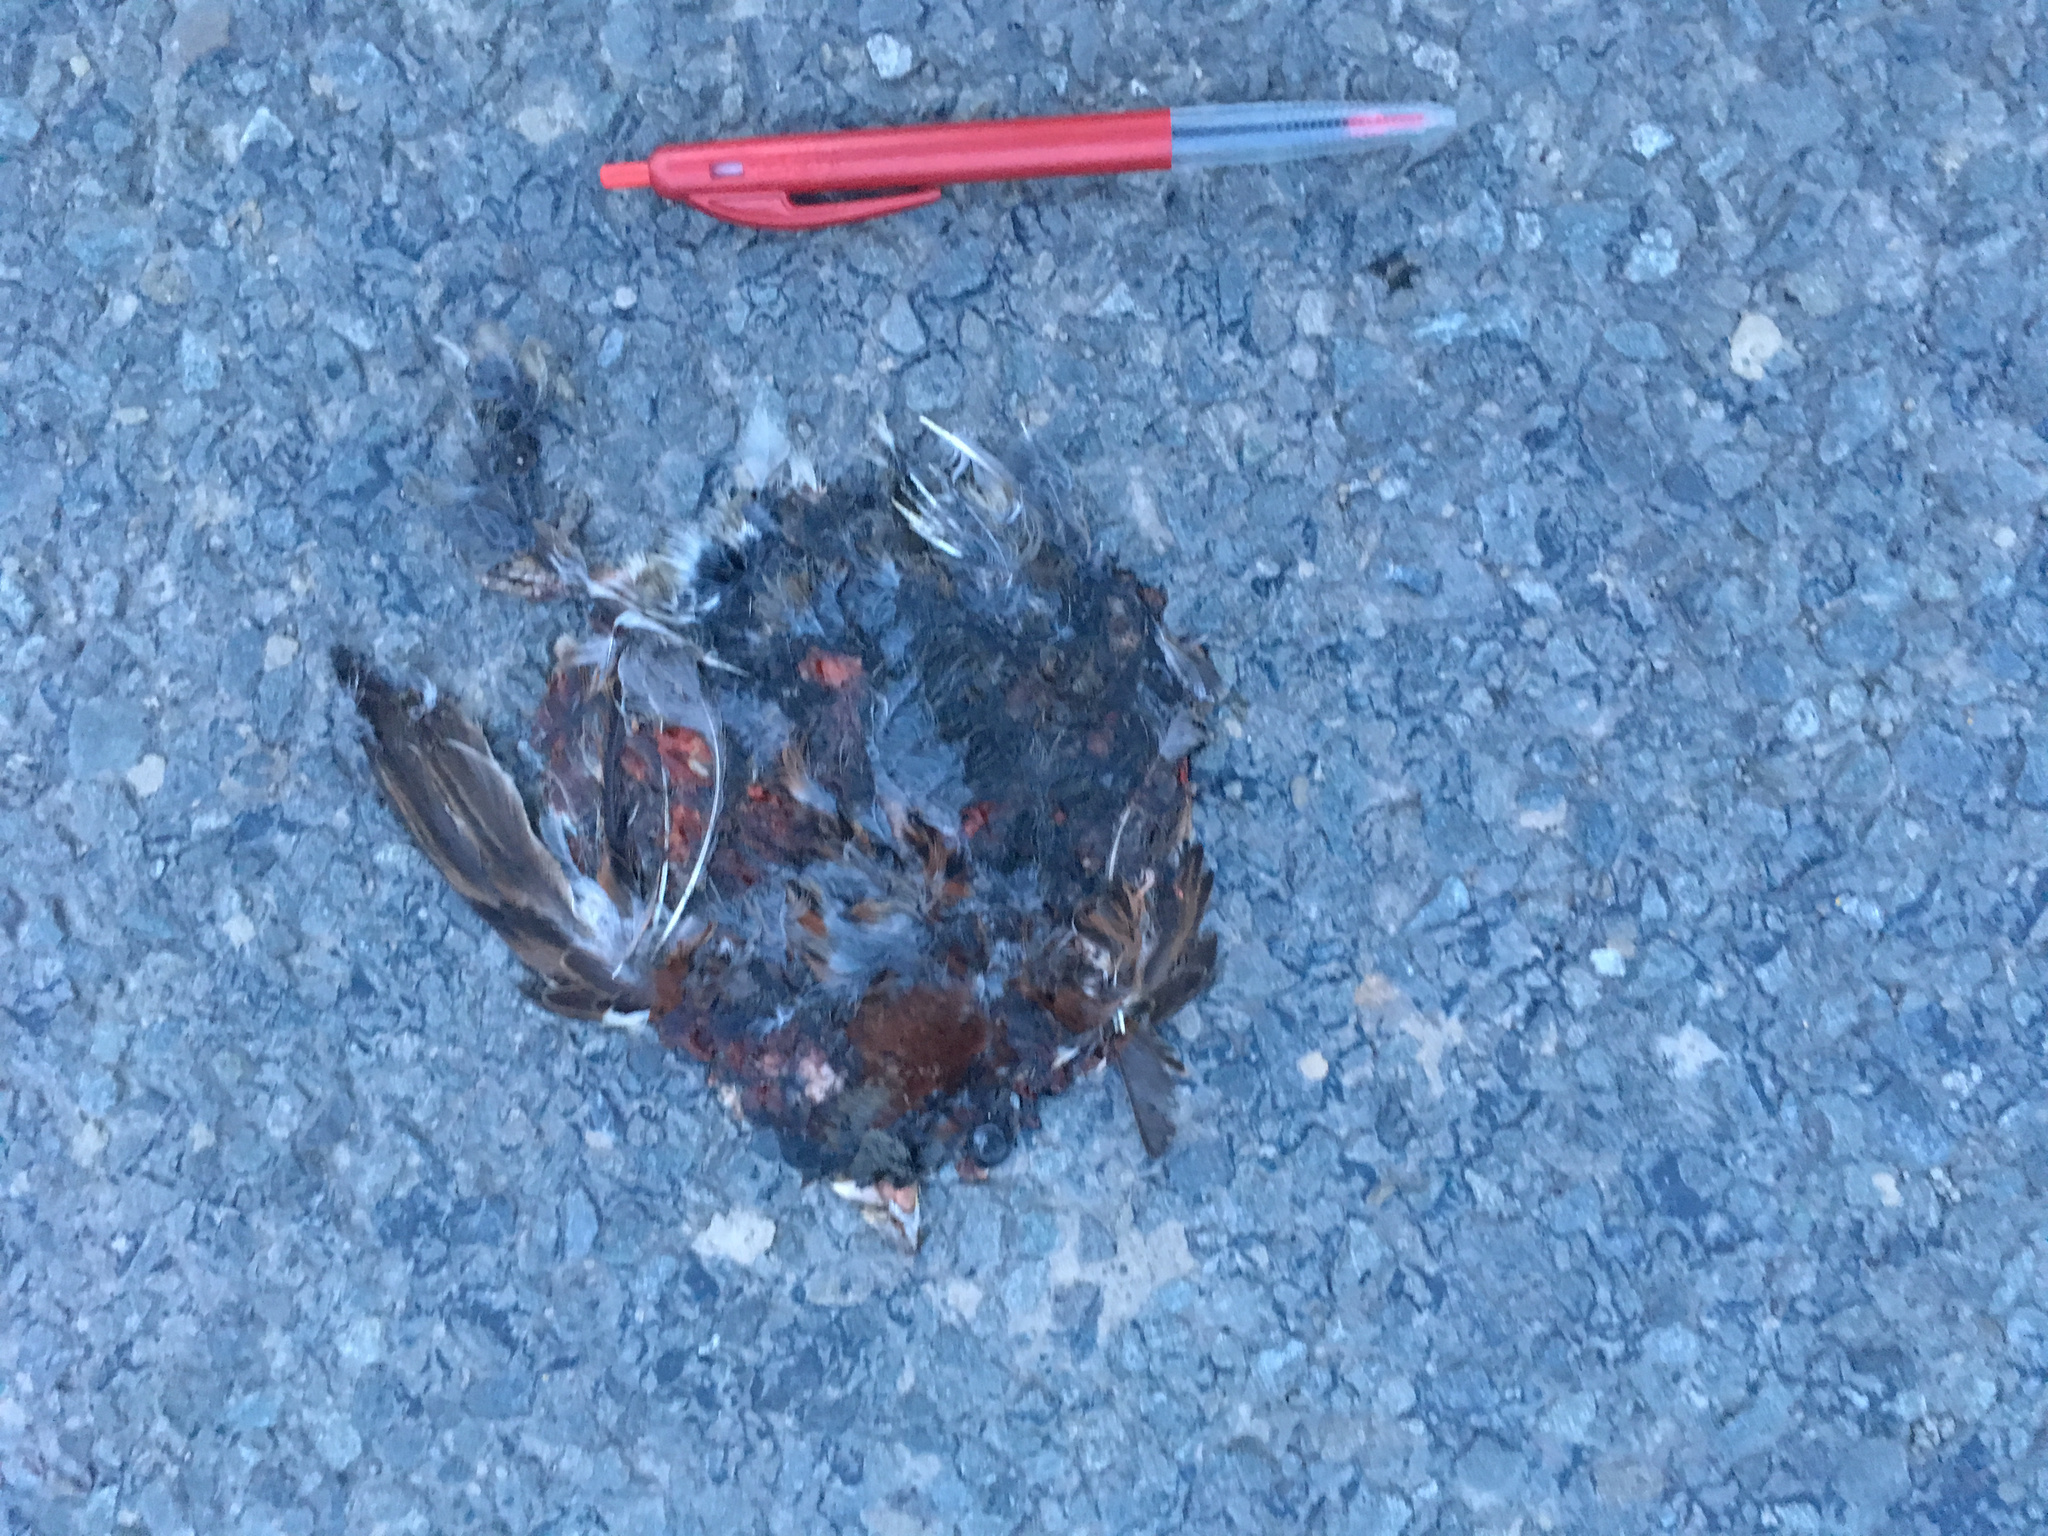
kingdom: Animalia
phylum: Chordata
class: Aves
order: Passeriformes
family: Passeridae
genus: Passer
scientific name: Passer domesticus
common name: House sparrow
